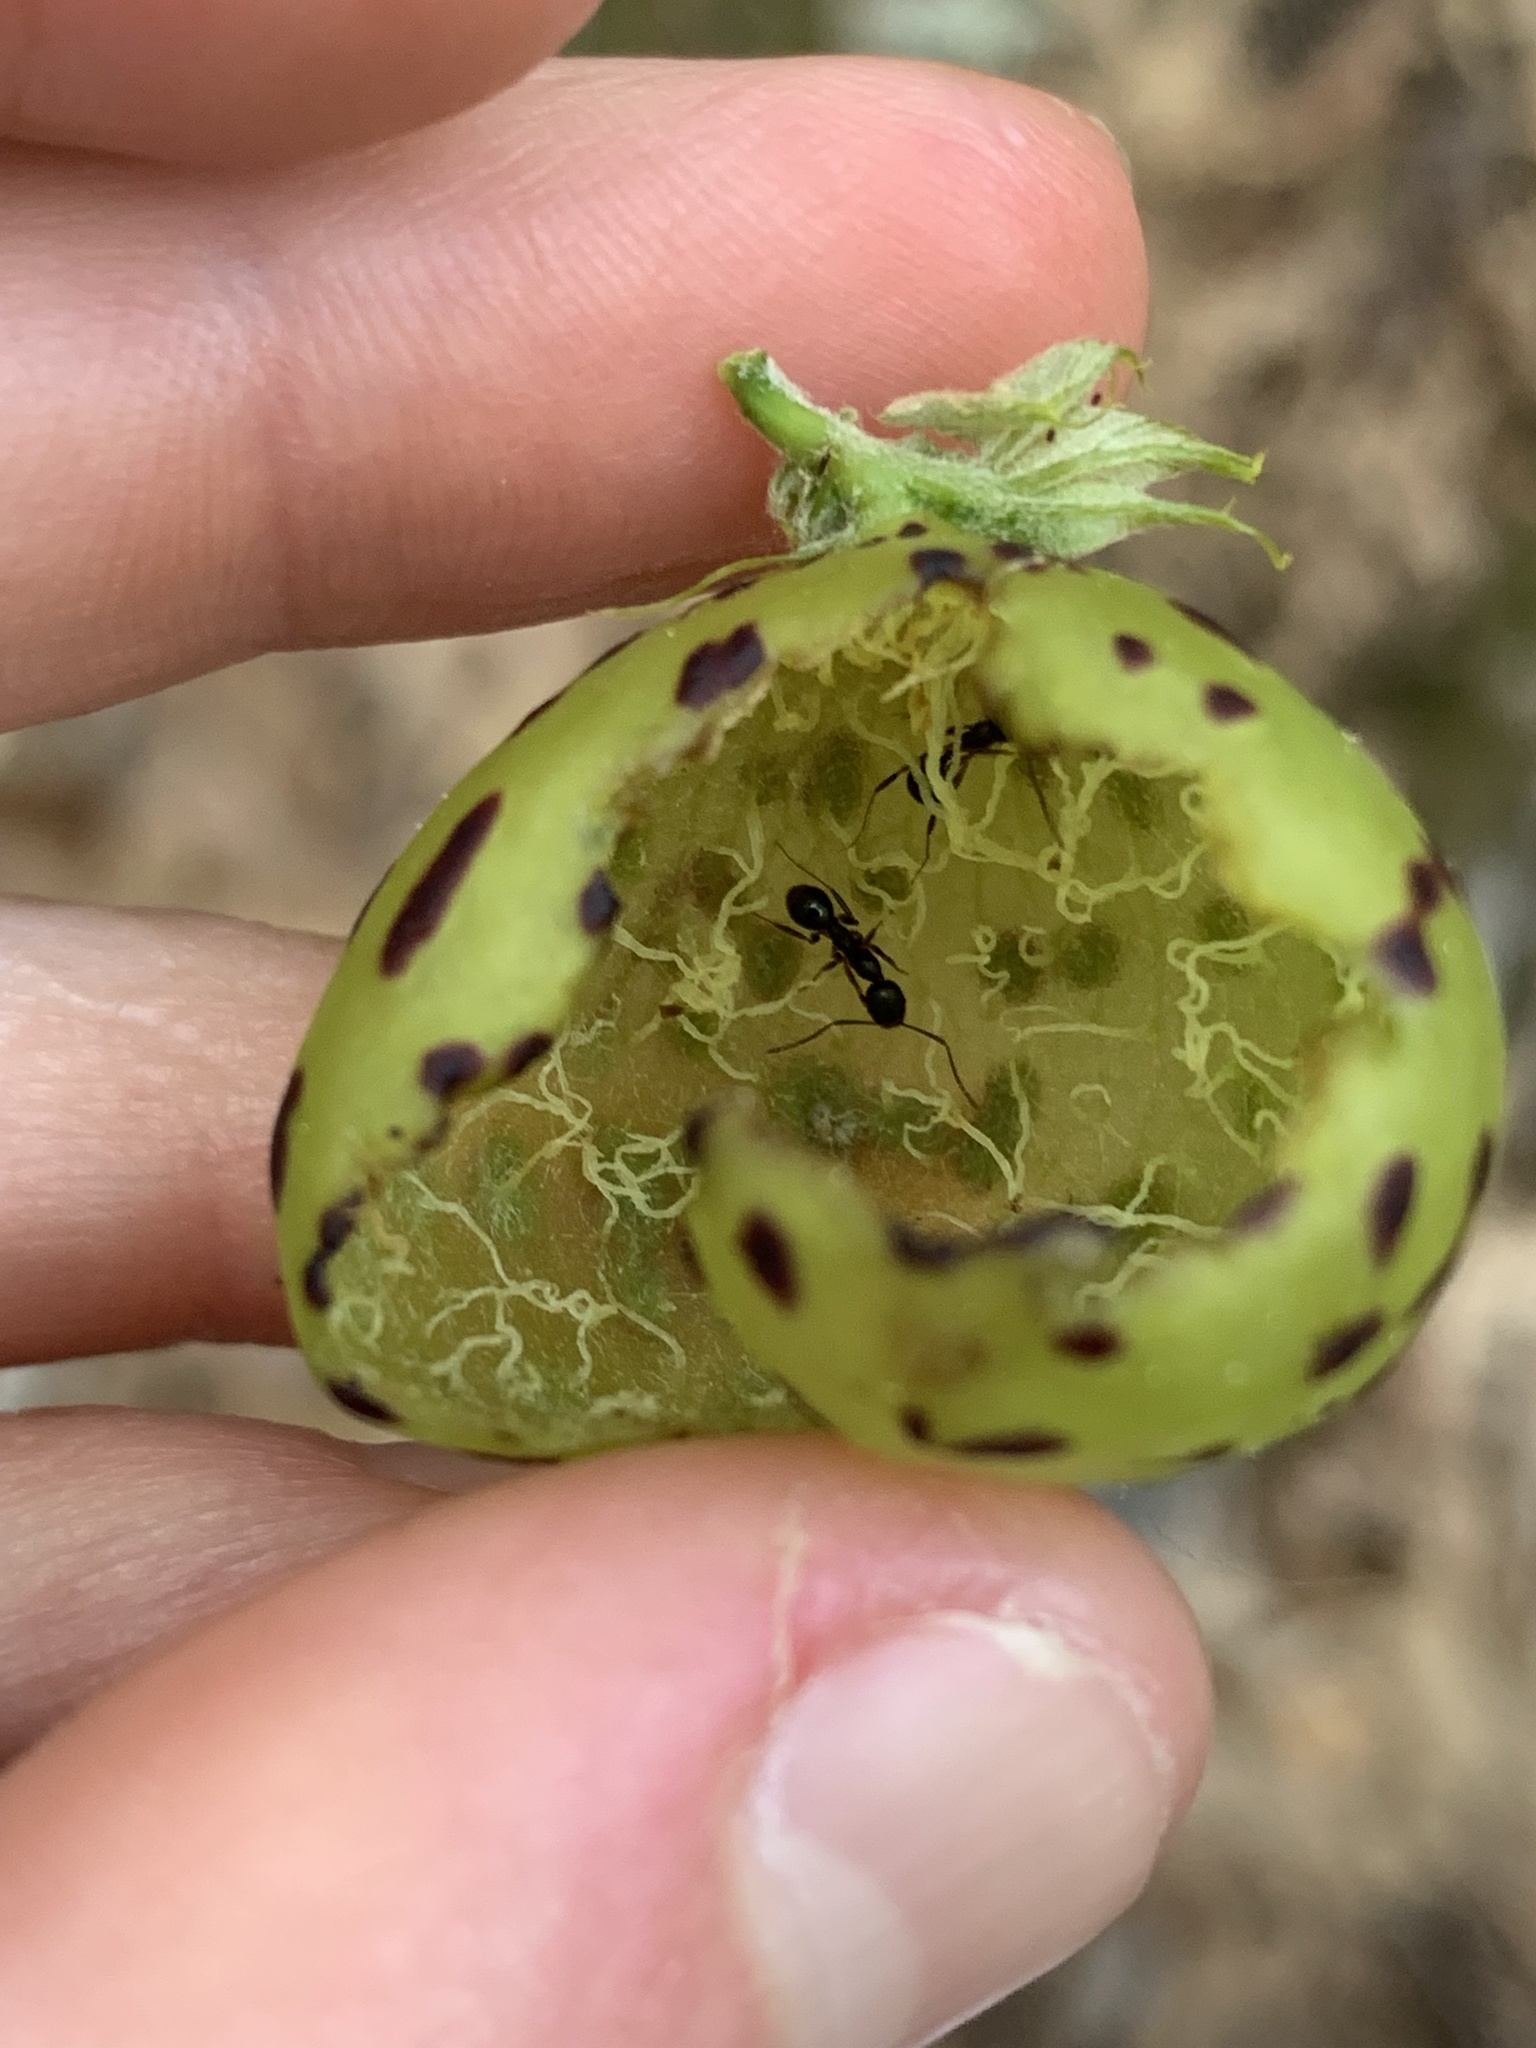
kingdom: Animalia
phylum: Arthropoda
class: Insecta
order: Hymenoptera
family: Formicidae
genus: Aphaenogaster
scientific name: Aphaenogaster picea
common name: Pitch-black collared ant
